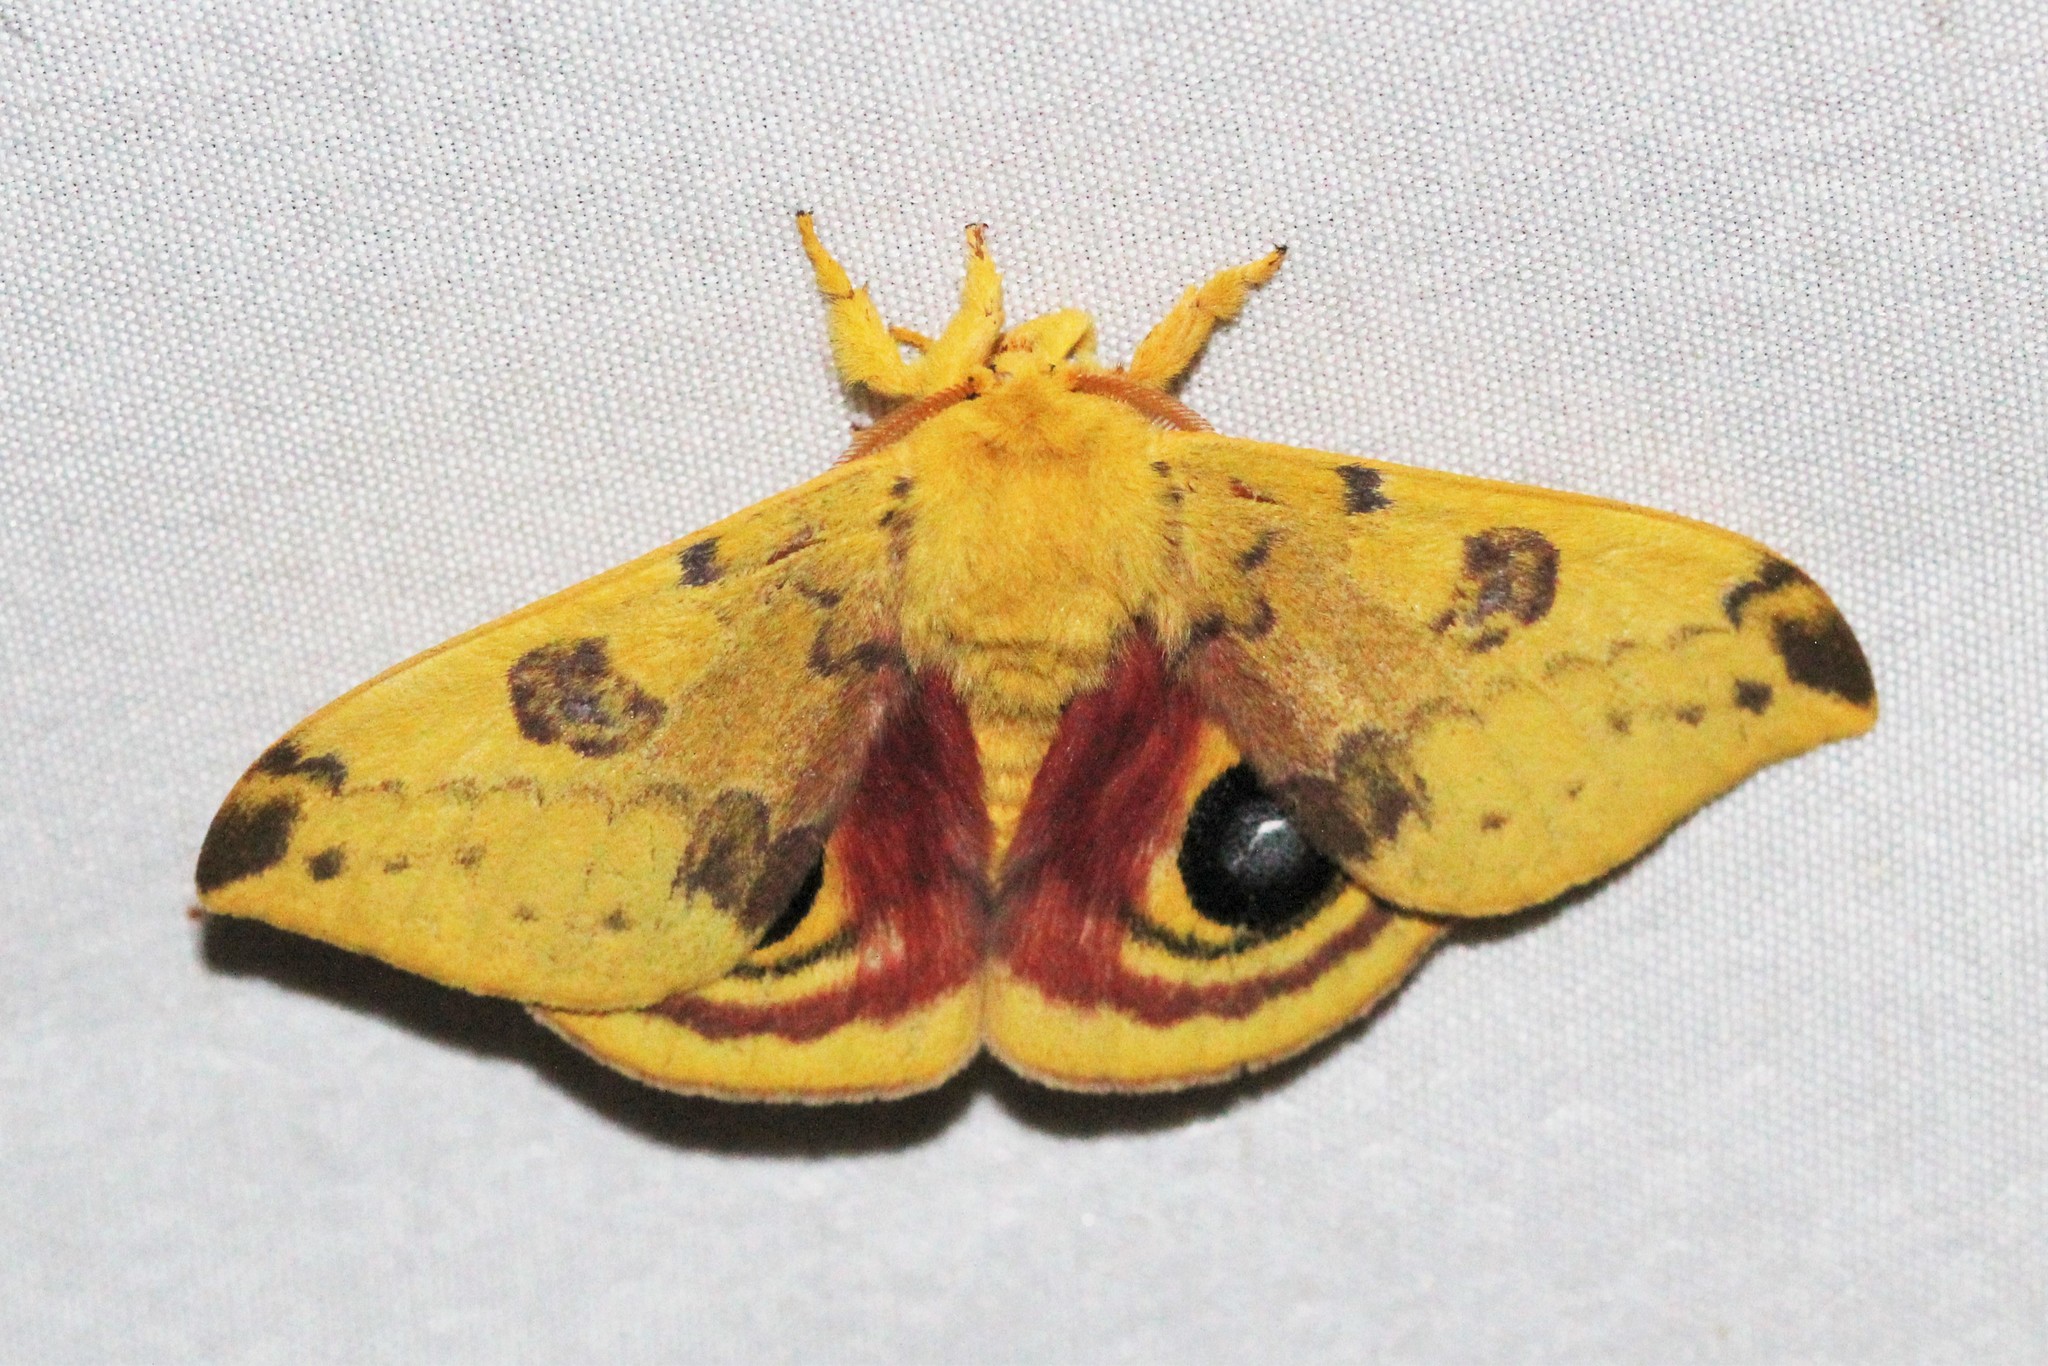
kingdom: Animalia
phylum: Arthropoda
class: Insecta
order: Lepidoptera
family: Saturniidae
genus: Automeris
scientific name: Automeris io
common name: Io moth
